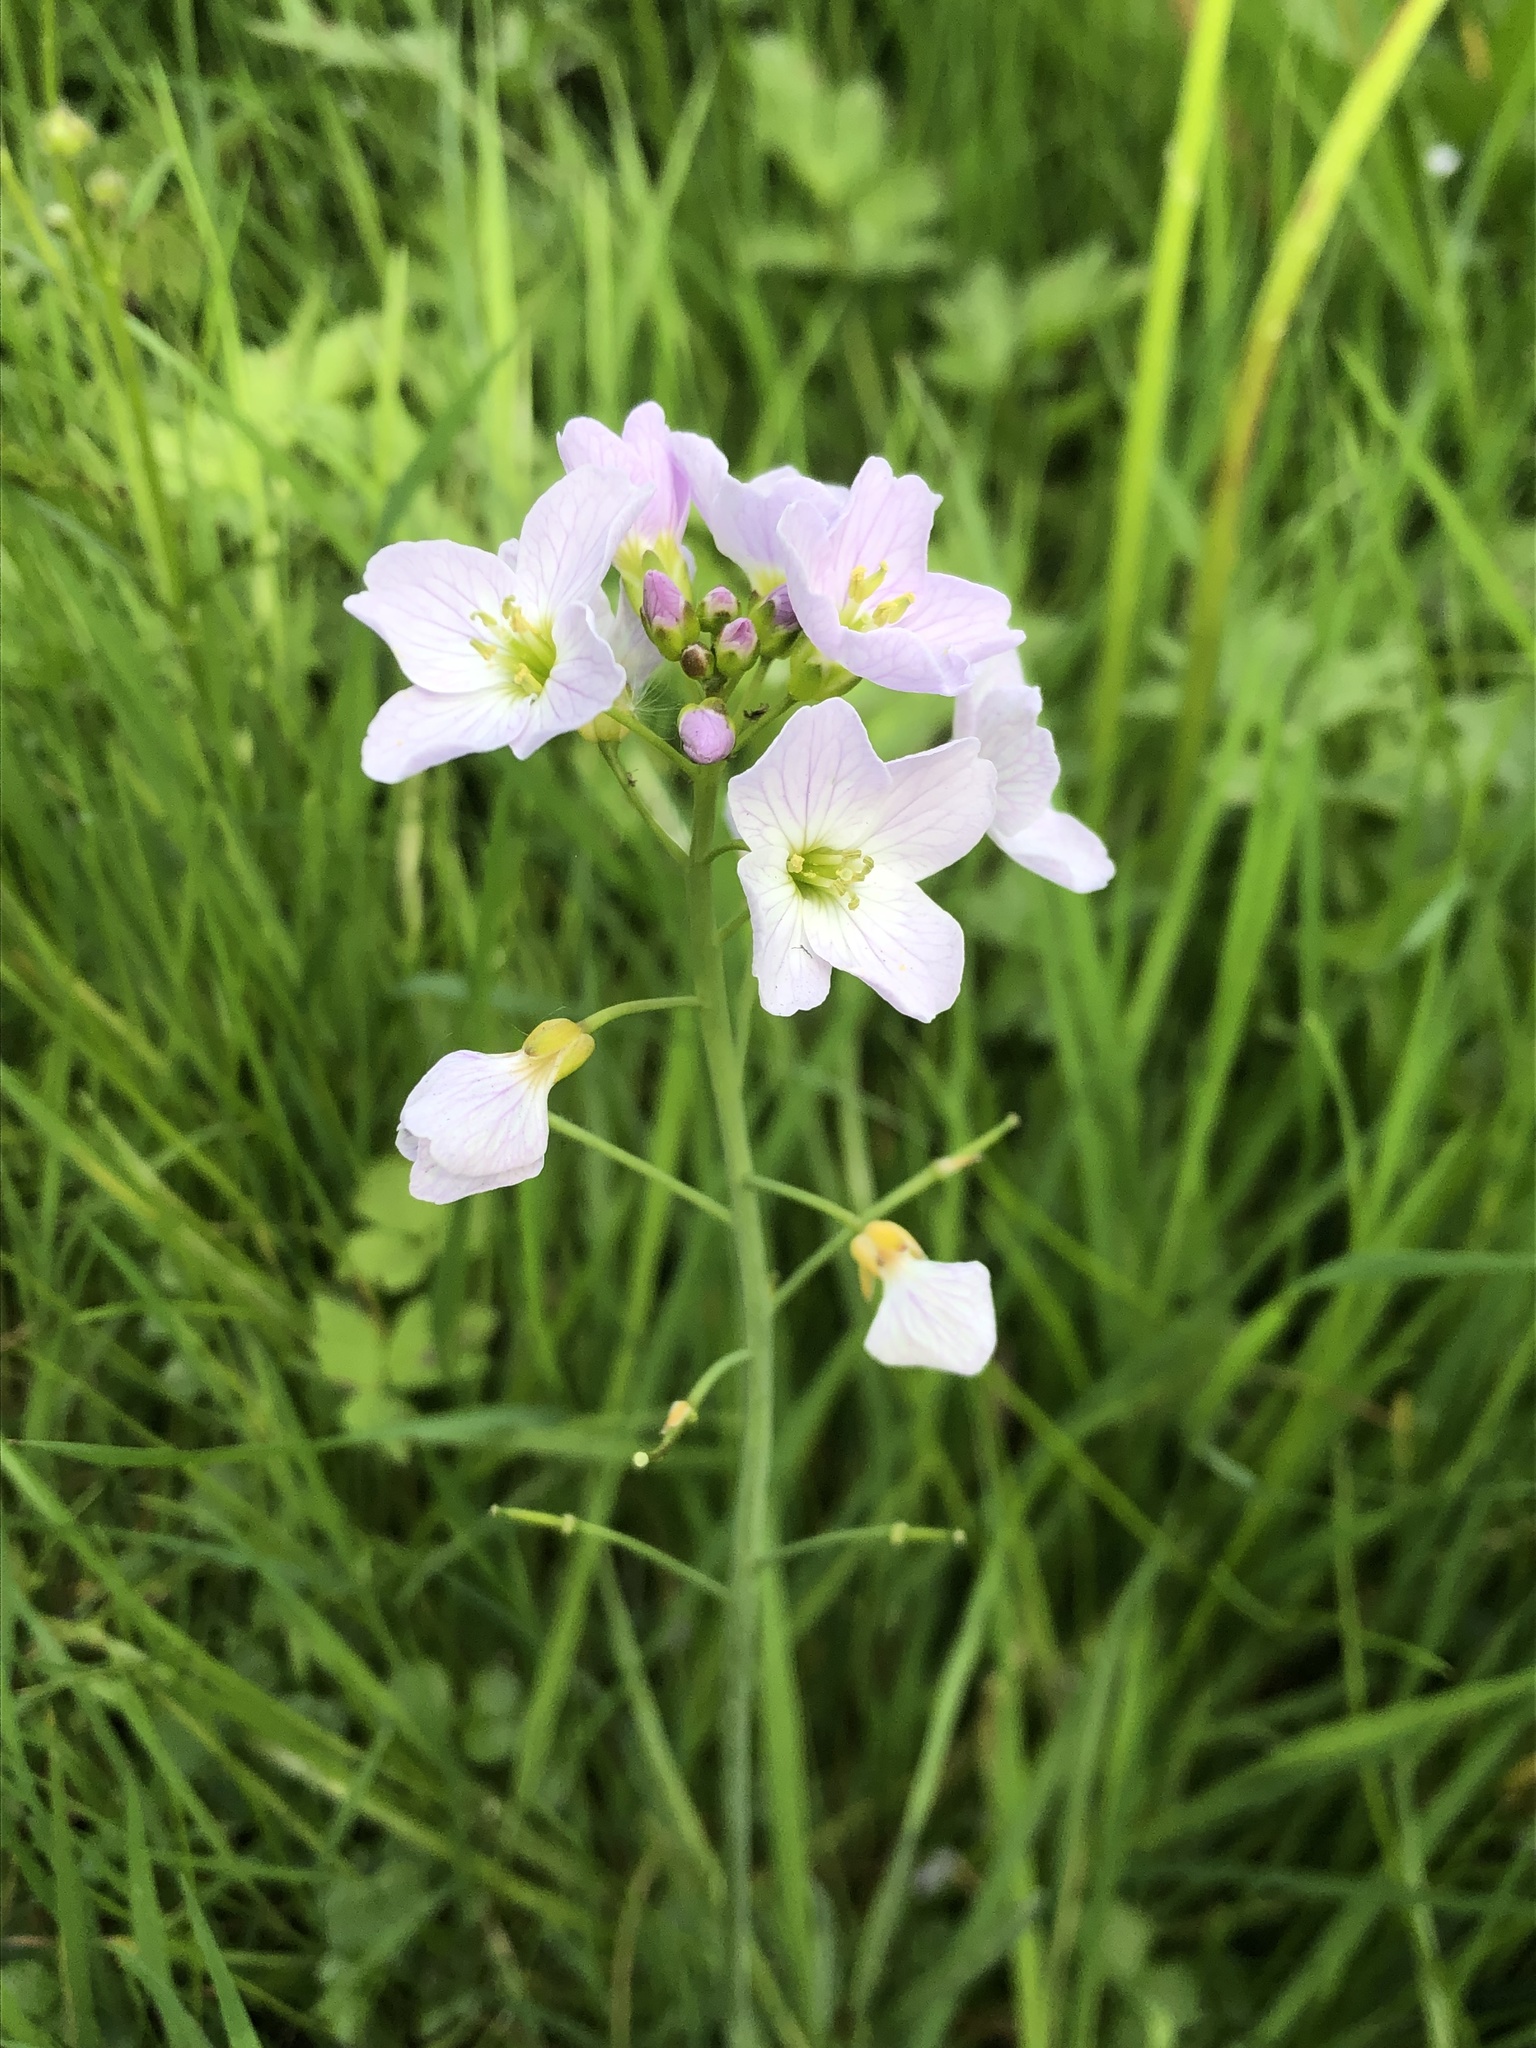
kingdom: Plantae
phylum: Tracheophyta
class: Magnoliopsida
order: Brassicales
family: Brassicaceae
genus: Cardamine
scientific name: Cardamine pratensis
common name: Cuckoo flower
